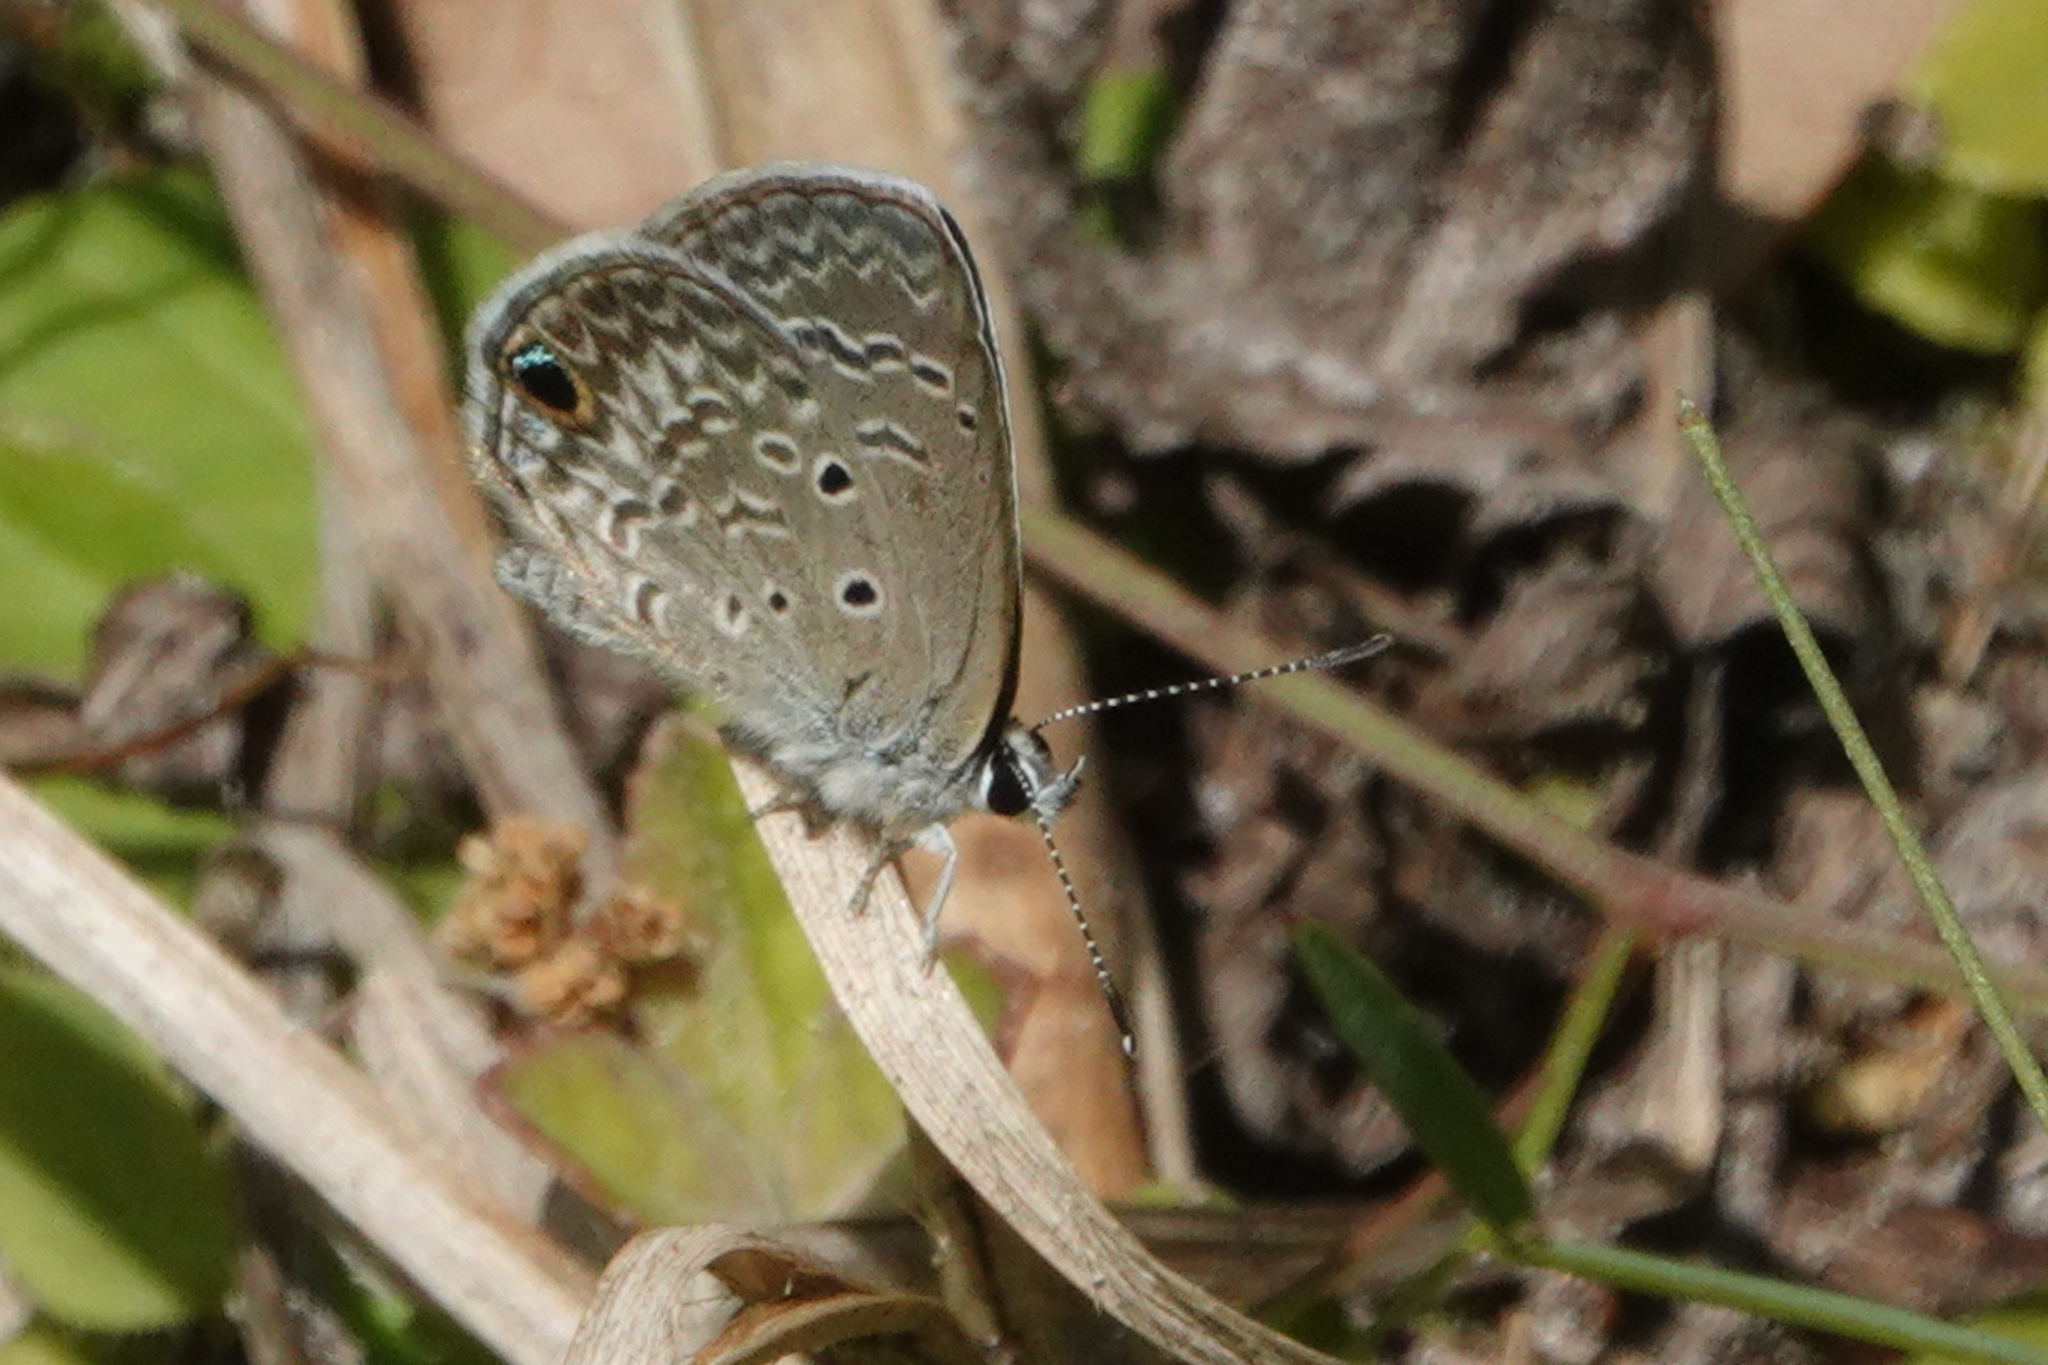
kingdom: Animalia
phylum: Arthropoda
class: Insecta
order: Lepidoptera
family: Lycaenidae
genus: Hemiargus
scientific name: Hemiargus ceraunus
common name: Ceraunus blue
